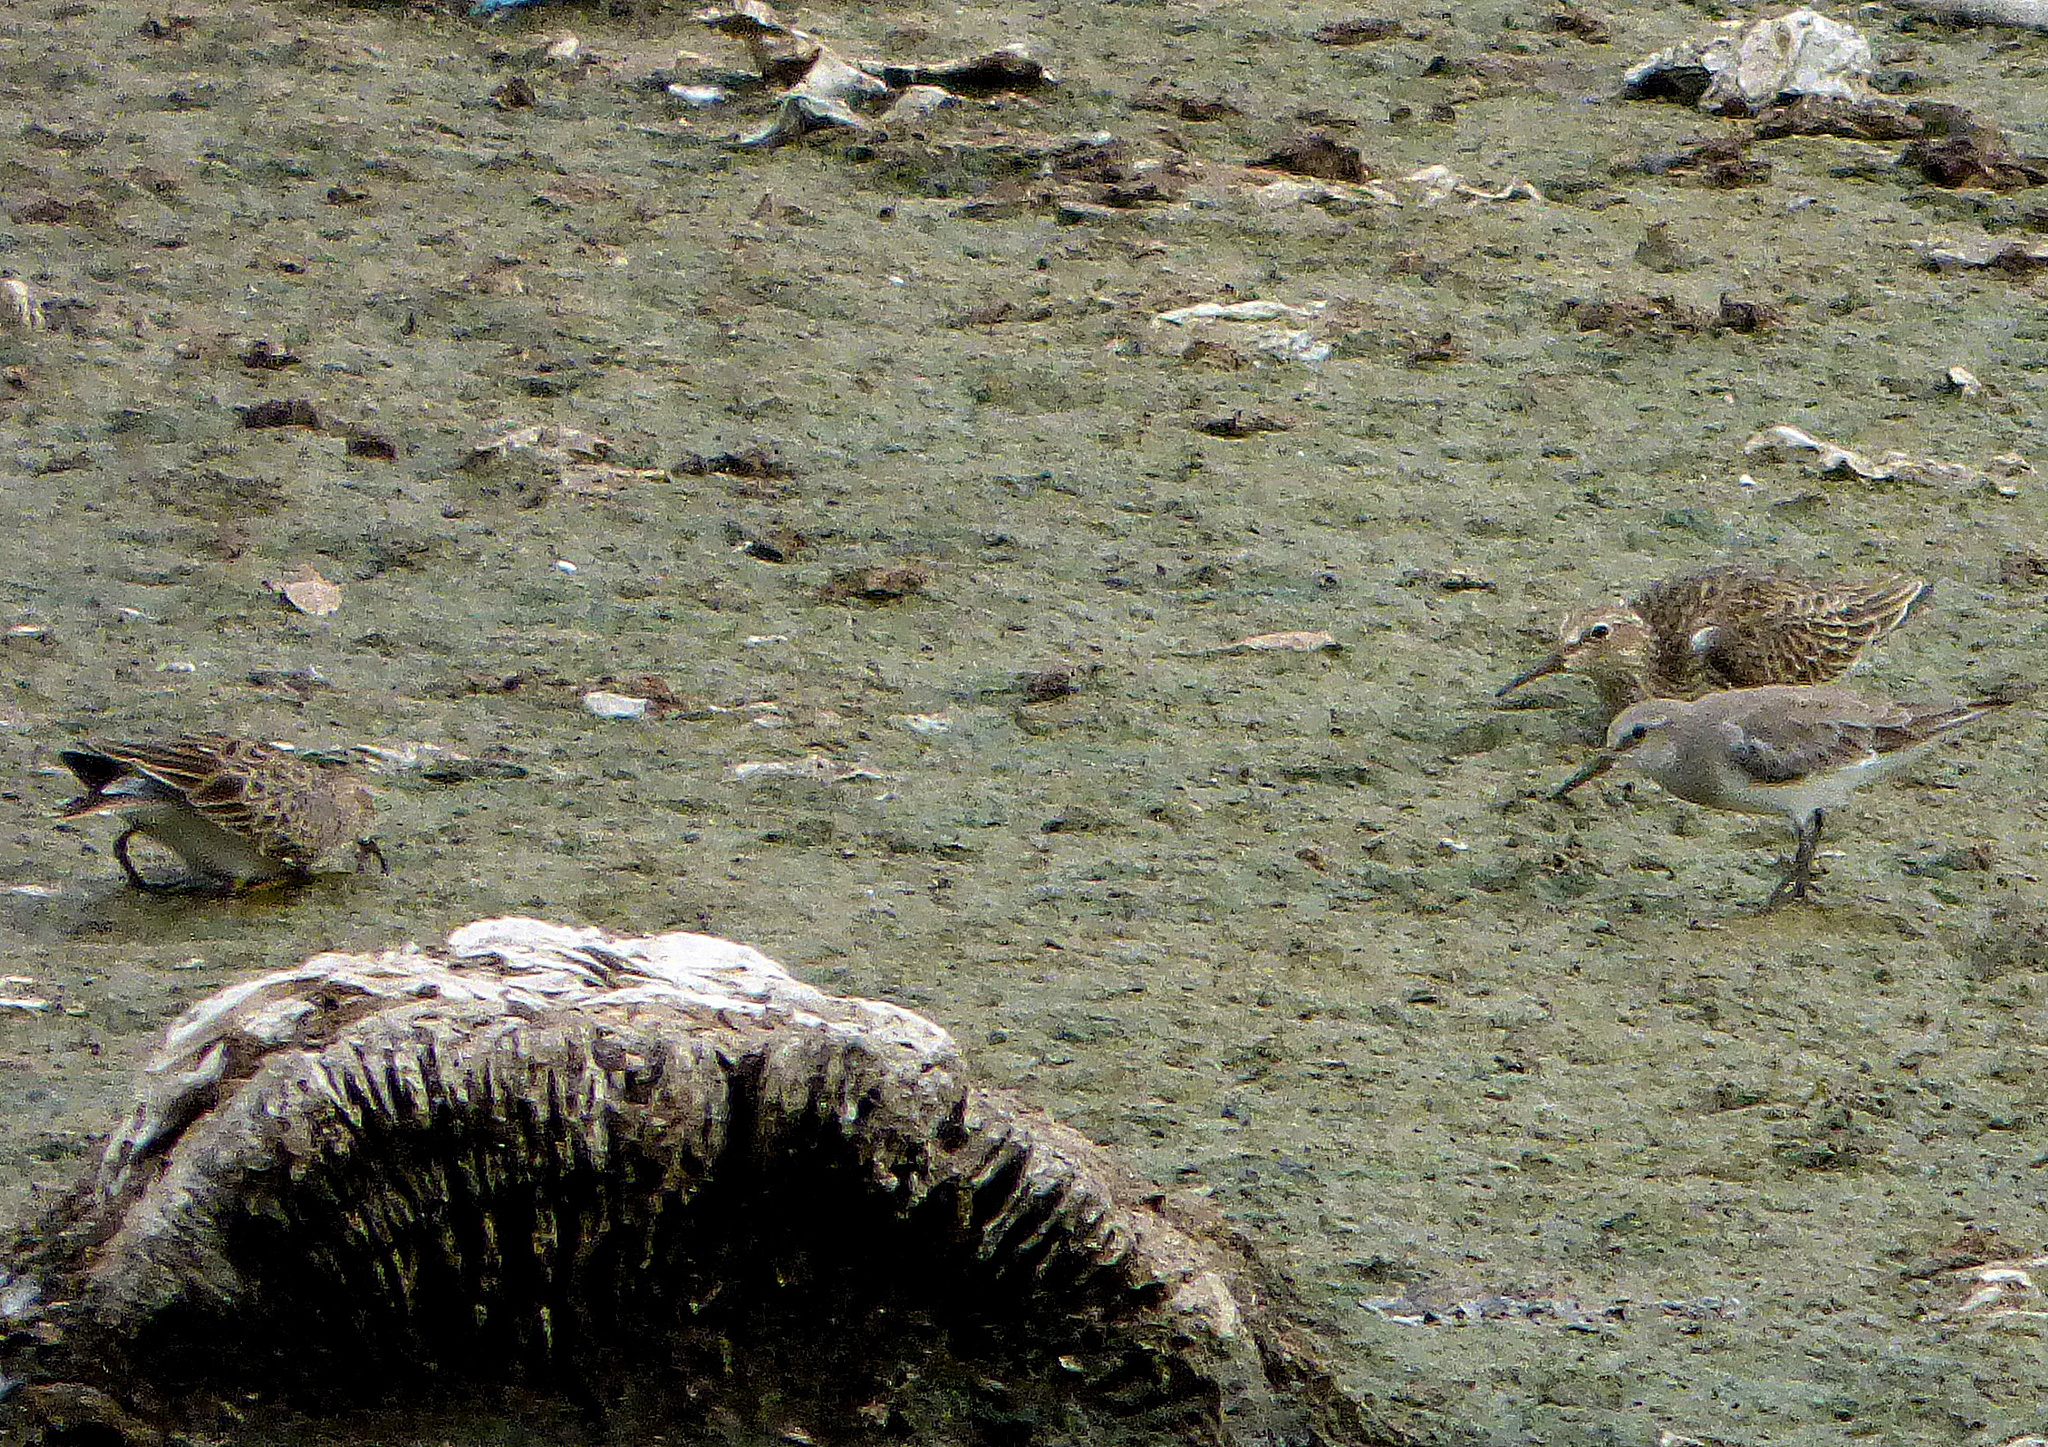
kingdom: Animalia
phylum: Chordata
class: Aves
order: Charadriiformes
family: Scolopacidae
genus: Calidris
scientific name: Calidris bairdii
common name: Baird's sandpiper
